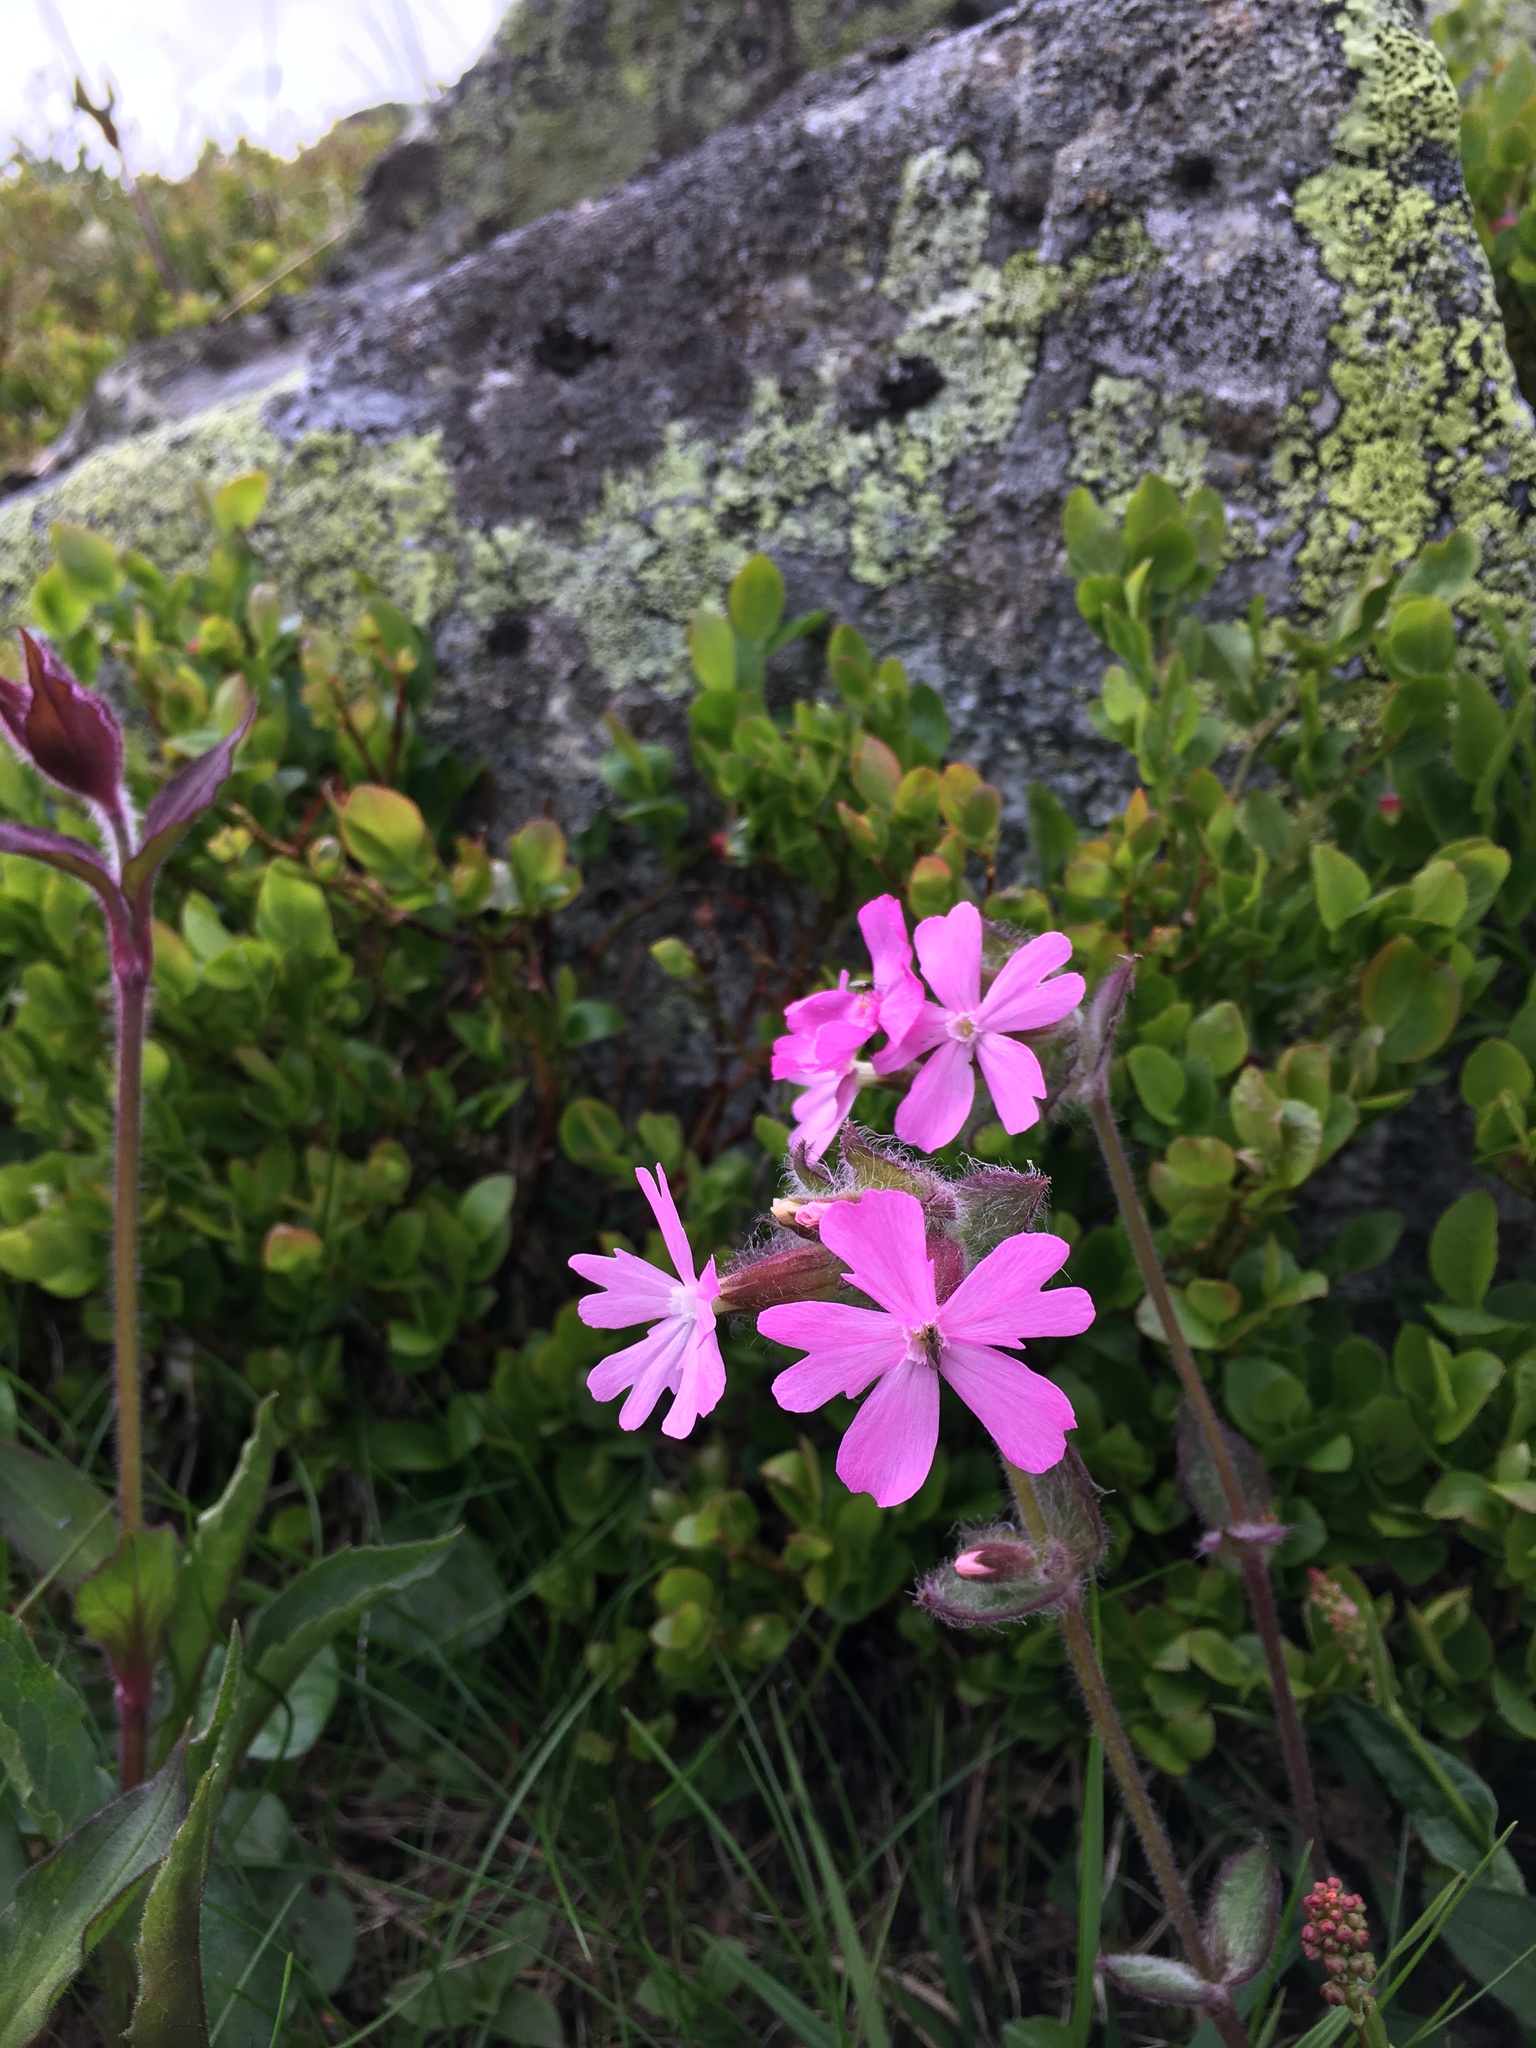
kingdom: Plantae
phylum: Tracheophyta
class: Magnoliopsida
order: Caryophyllales
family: Caryophyllaceae
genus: Silene
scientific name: Silene dioica
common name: Red campion
